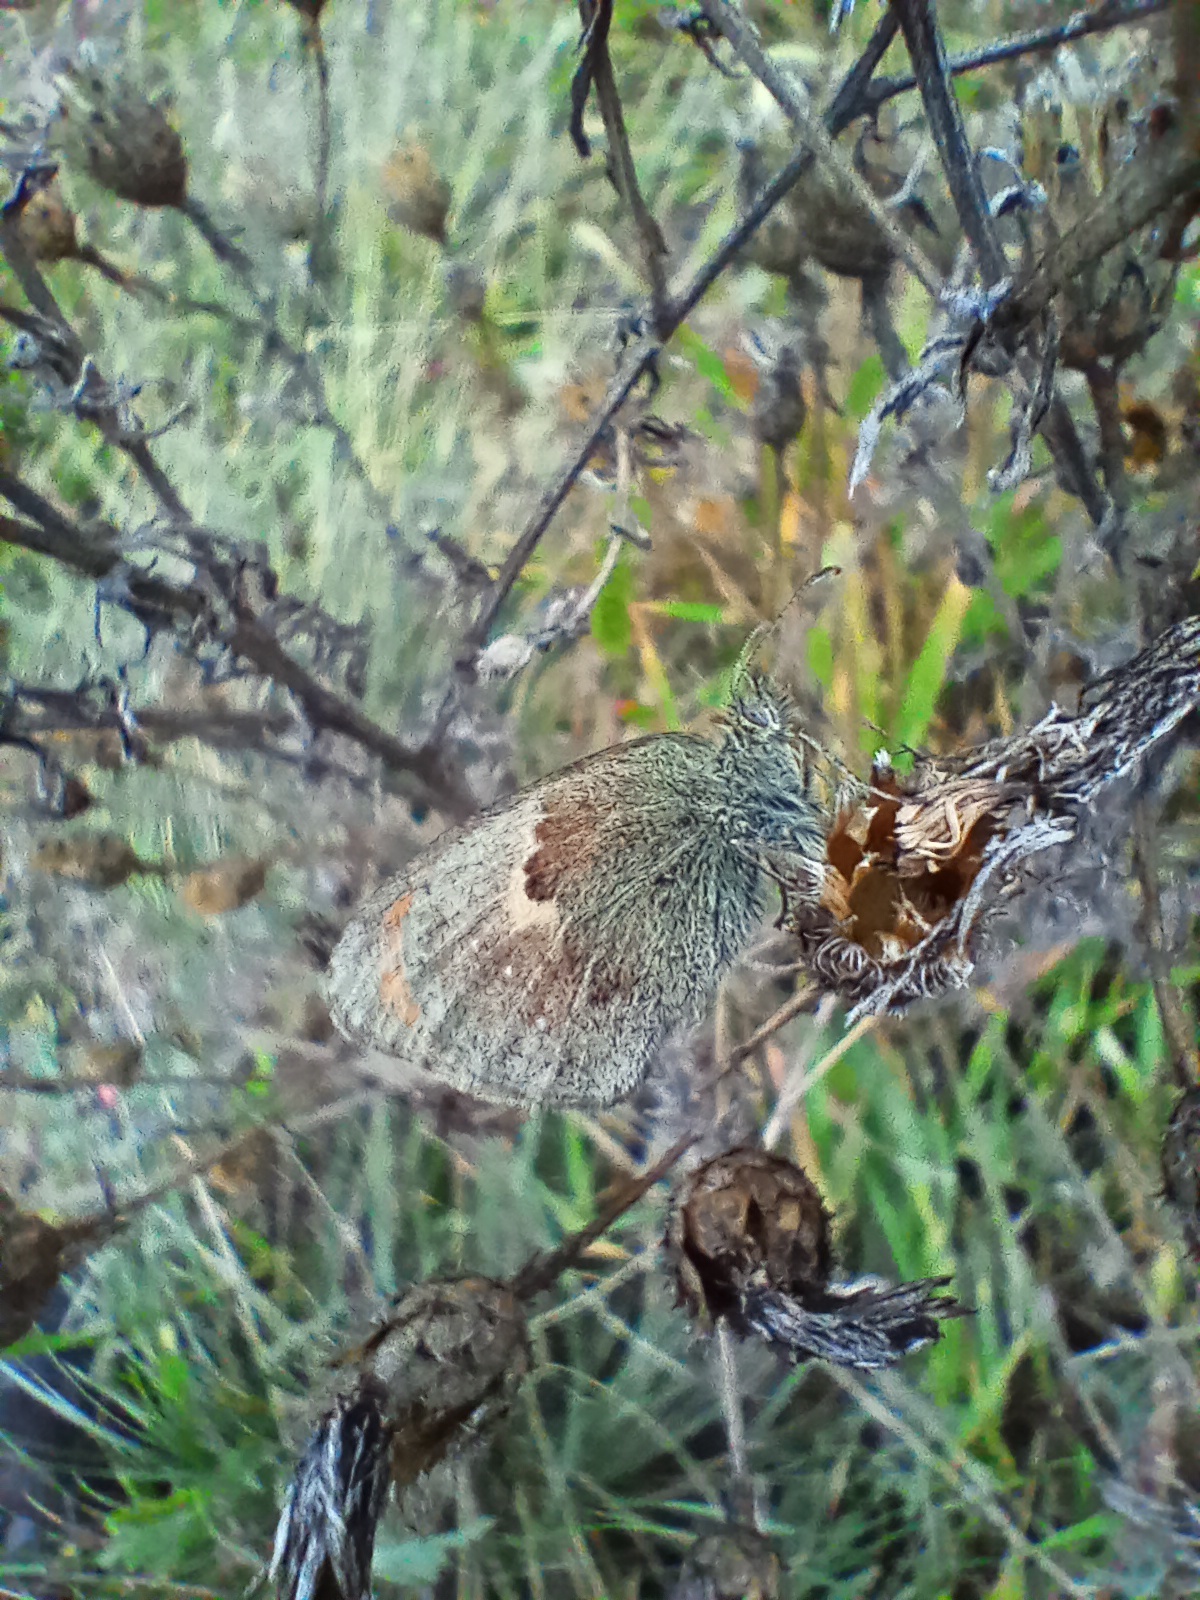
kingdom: Animalia
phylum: Arthropoda
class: Insecta
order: Lepidoptera
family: Nymphalidae
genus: Coenonympha
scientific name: Coenonympha pamphilus
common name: Small heath
